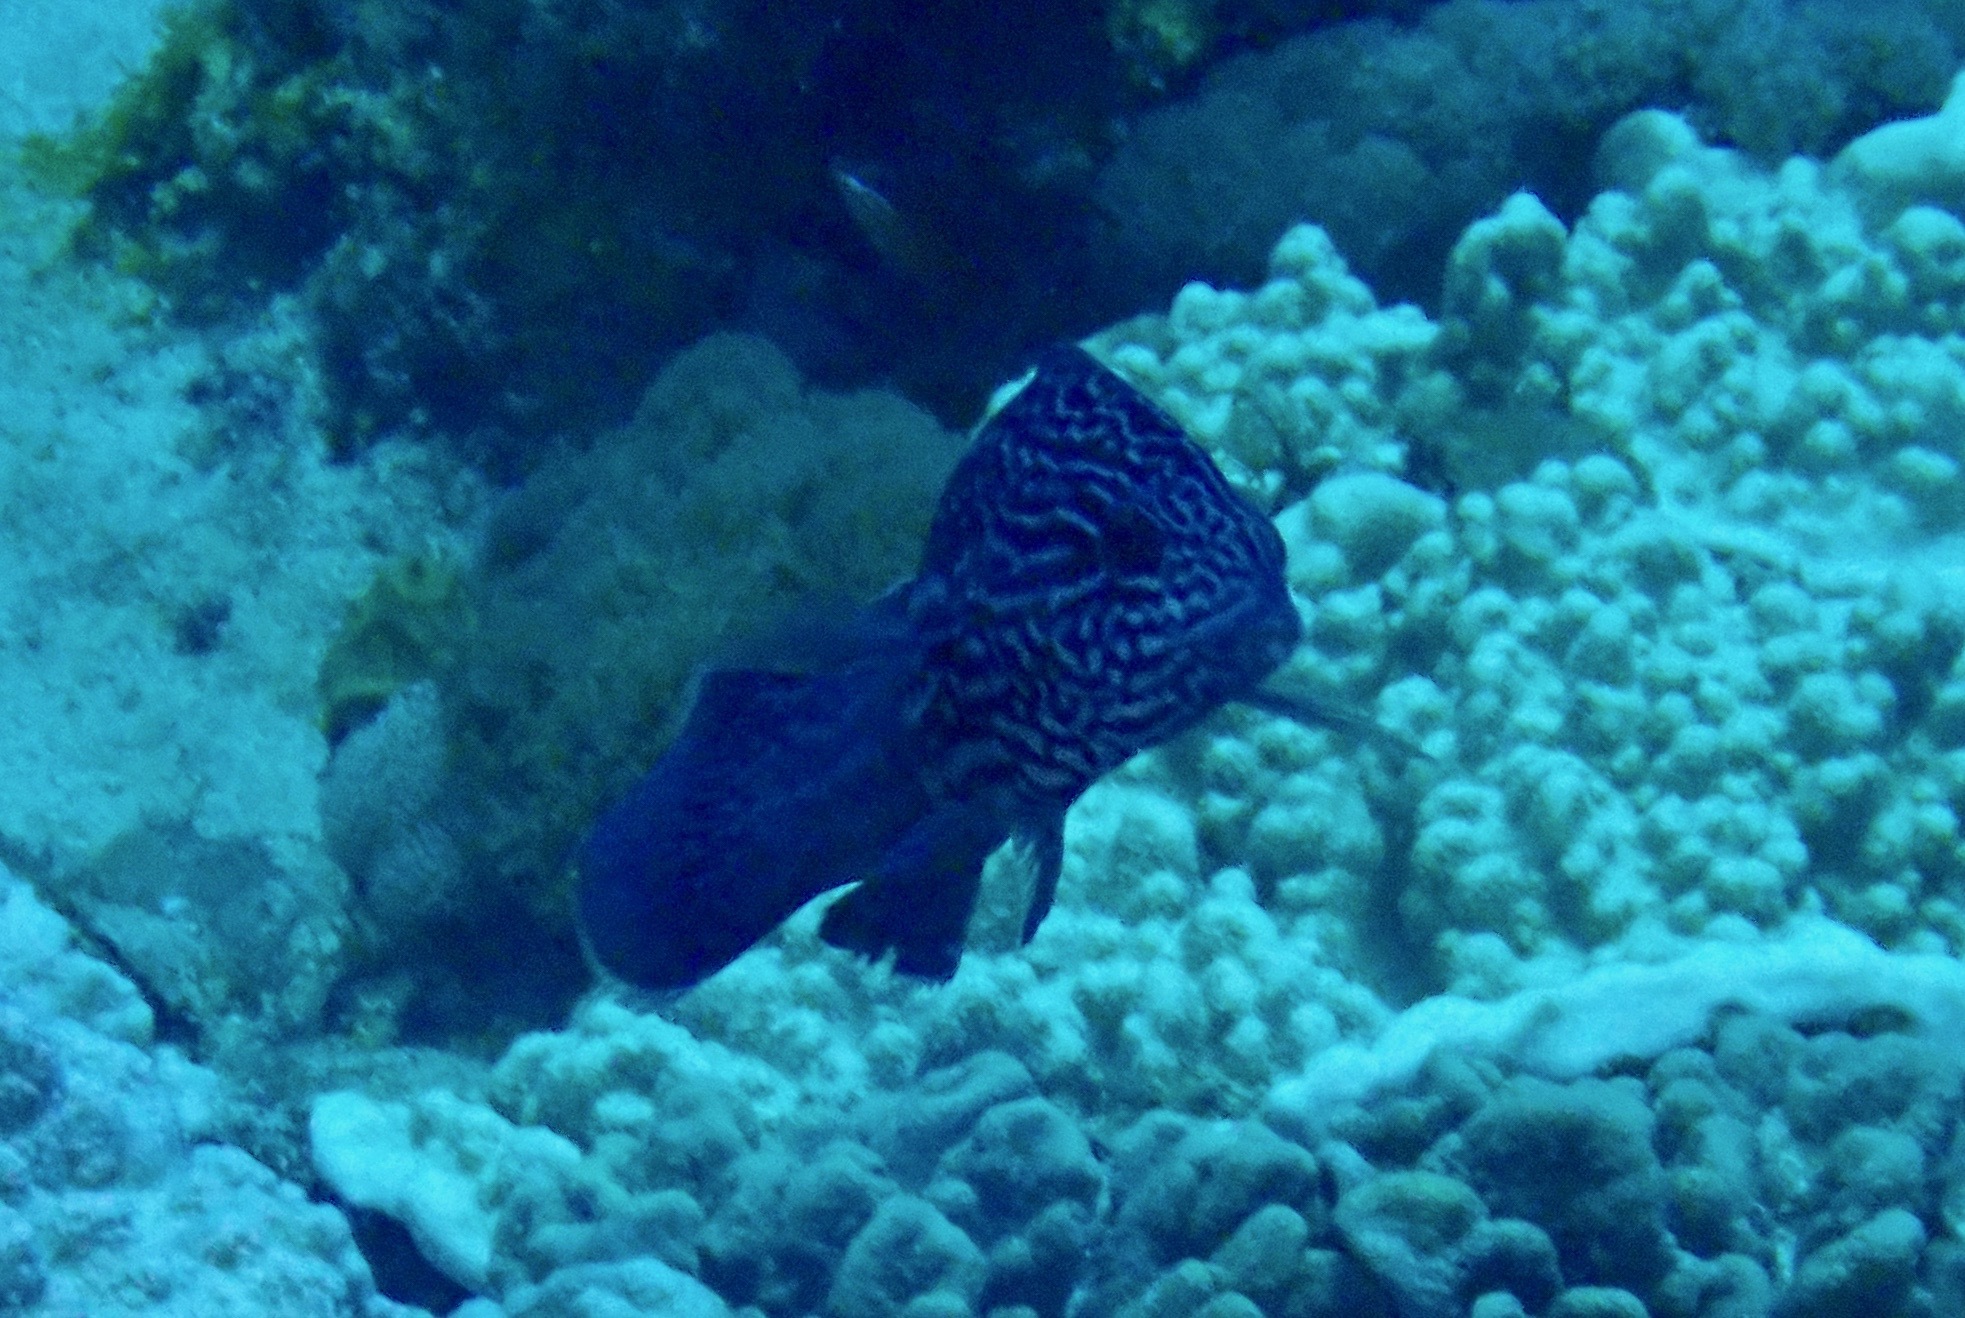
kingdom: Animalia
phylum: Chordata
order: Perciformes
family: Labridae
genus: Coris
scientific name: Coris bulbifrons
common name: Doubleheader
